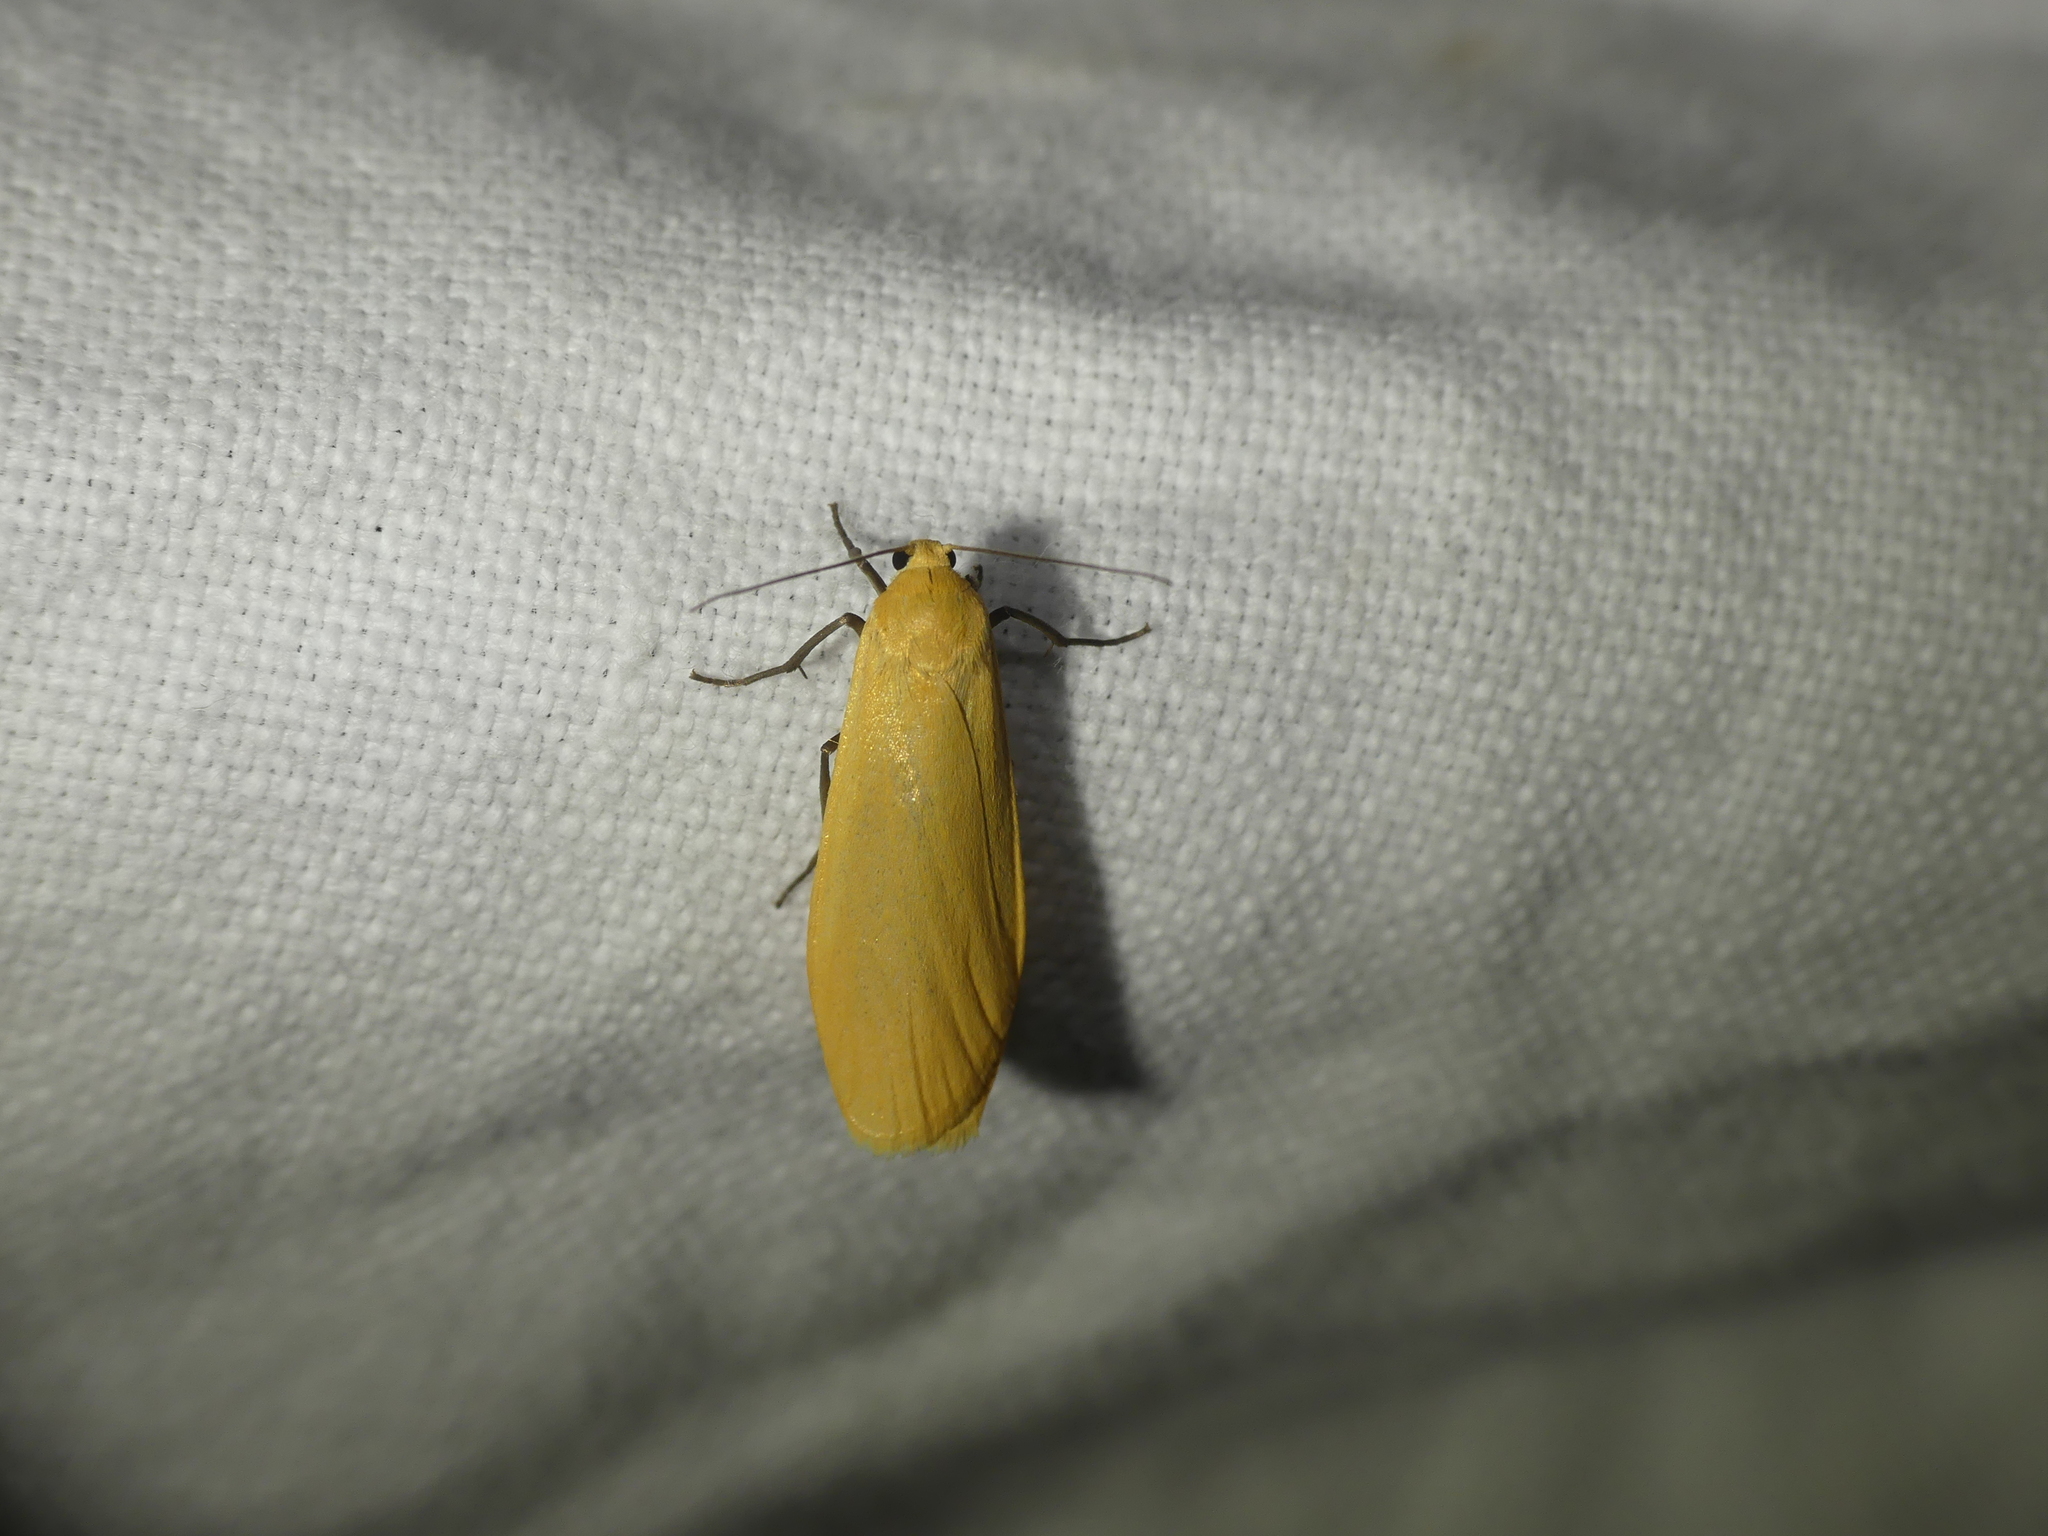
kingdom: Animalia
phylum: Arthropoda
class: Insecta
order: Lepidoptera
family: Erebidae
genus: Wittia
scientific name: Wittia sororcula
